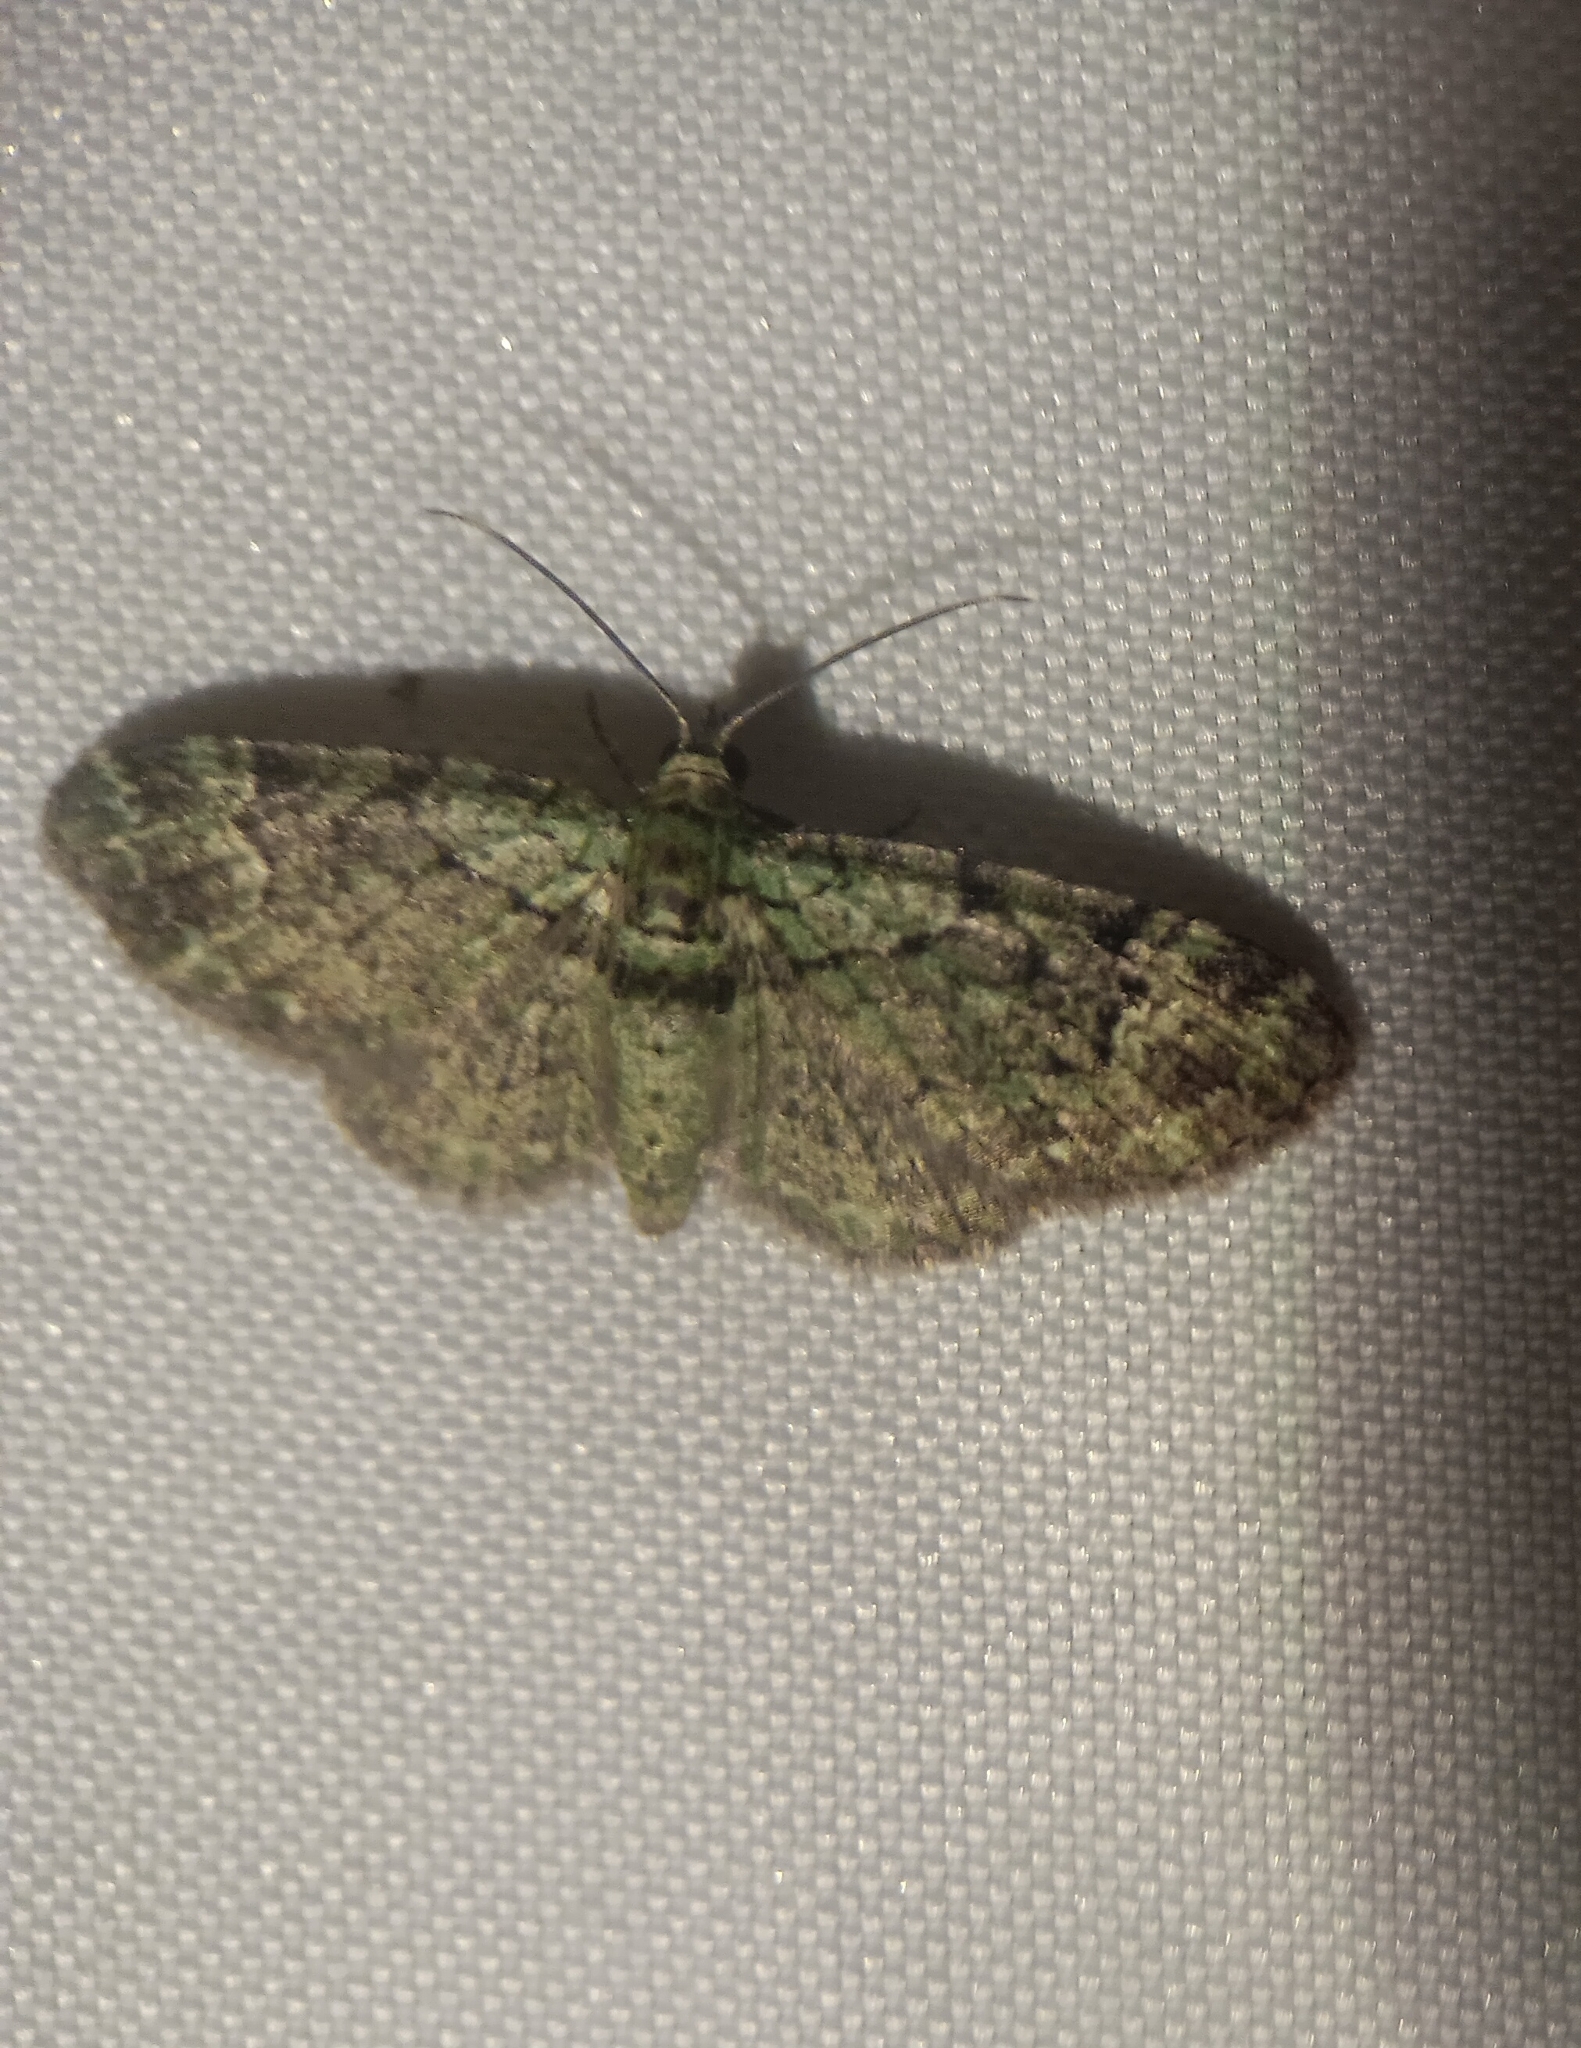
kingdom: Animalia
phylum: Arthropoda
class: Insecta
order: Lepidoptera
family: Geometridae
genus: Pasiphila
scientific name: Pasiphila rectangulata
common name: Green pug
